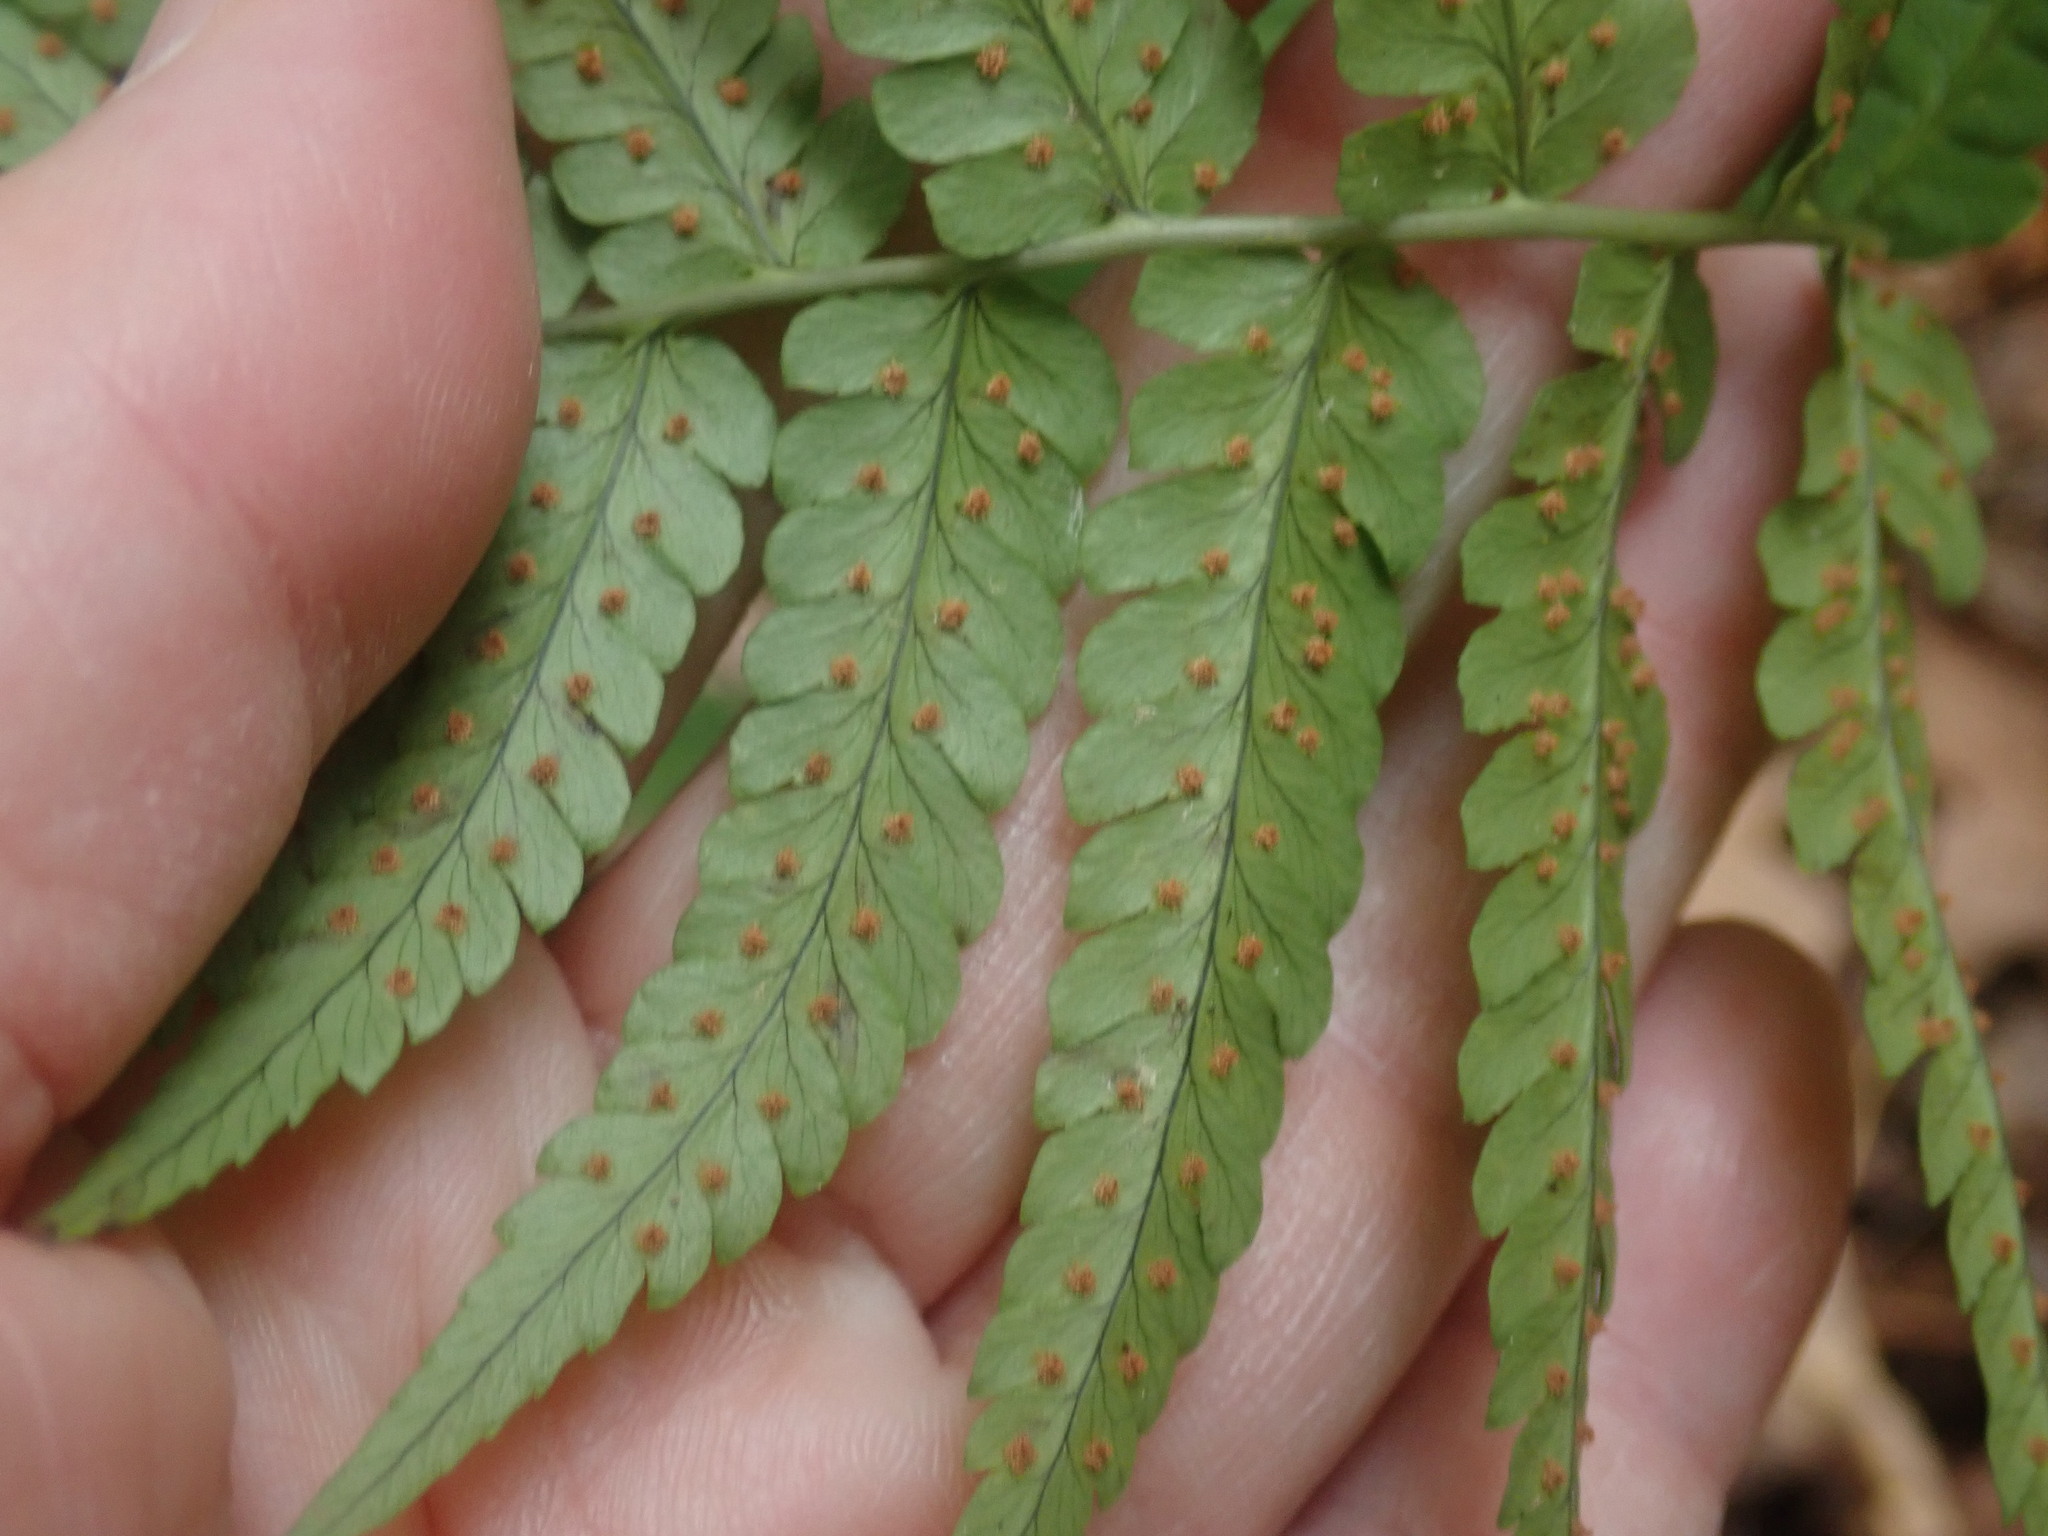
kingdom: Plantae
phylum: Tracheophyta
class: Polypodiopsida
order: Polypodiales
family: Dryopteridaceae
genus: Dryopteris
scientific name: Dryopteris marginalis
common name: Marginal wood fern
